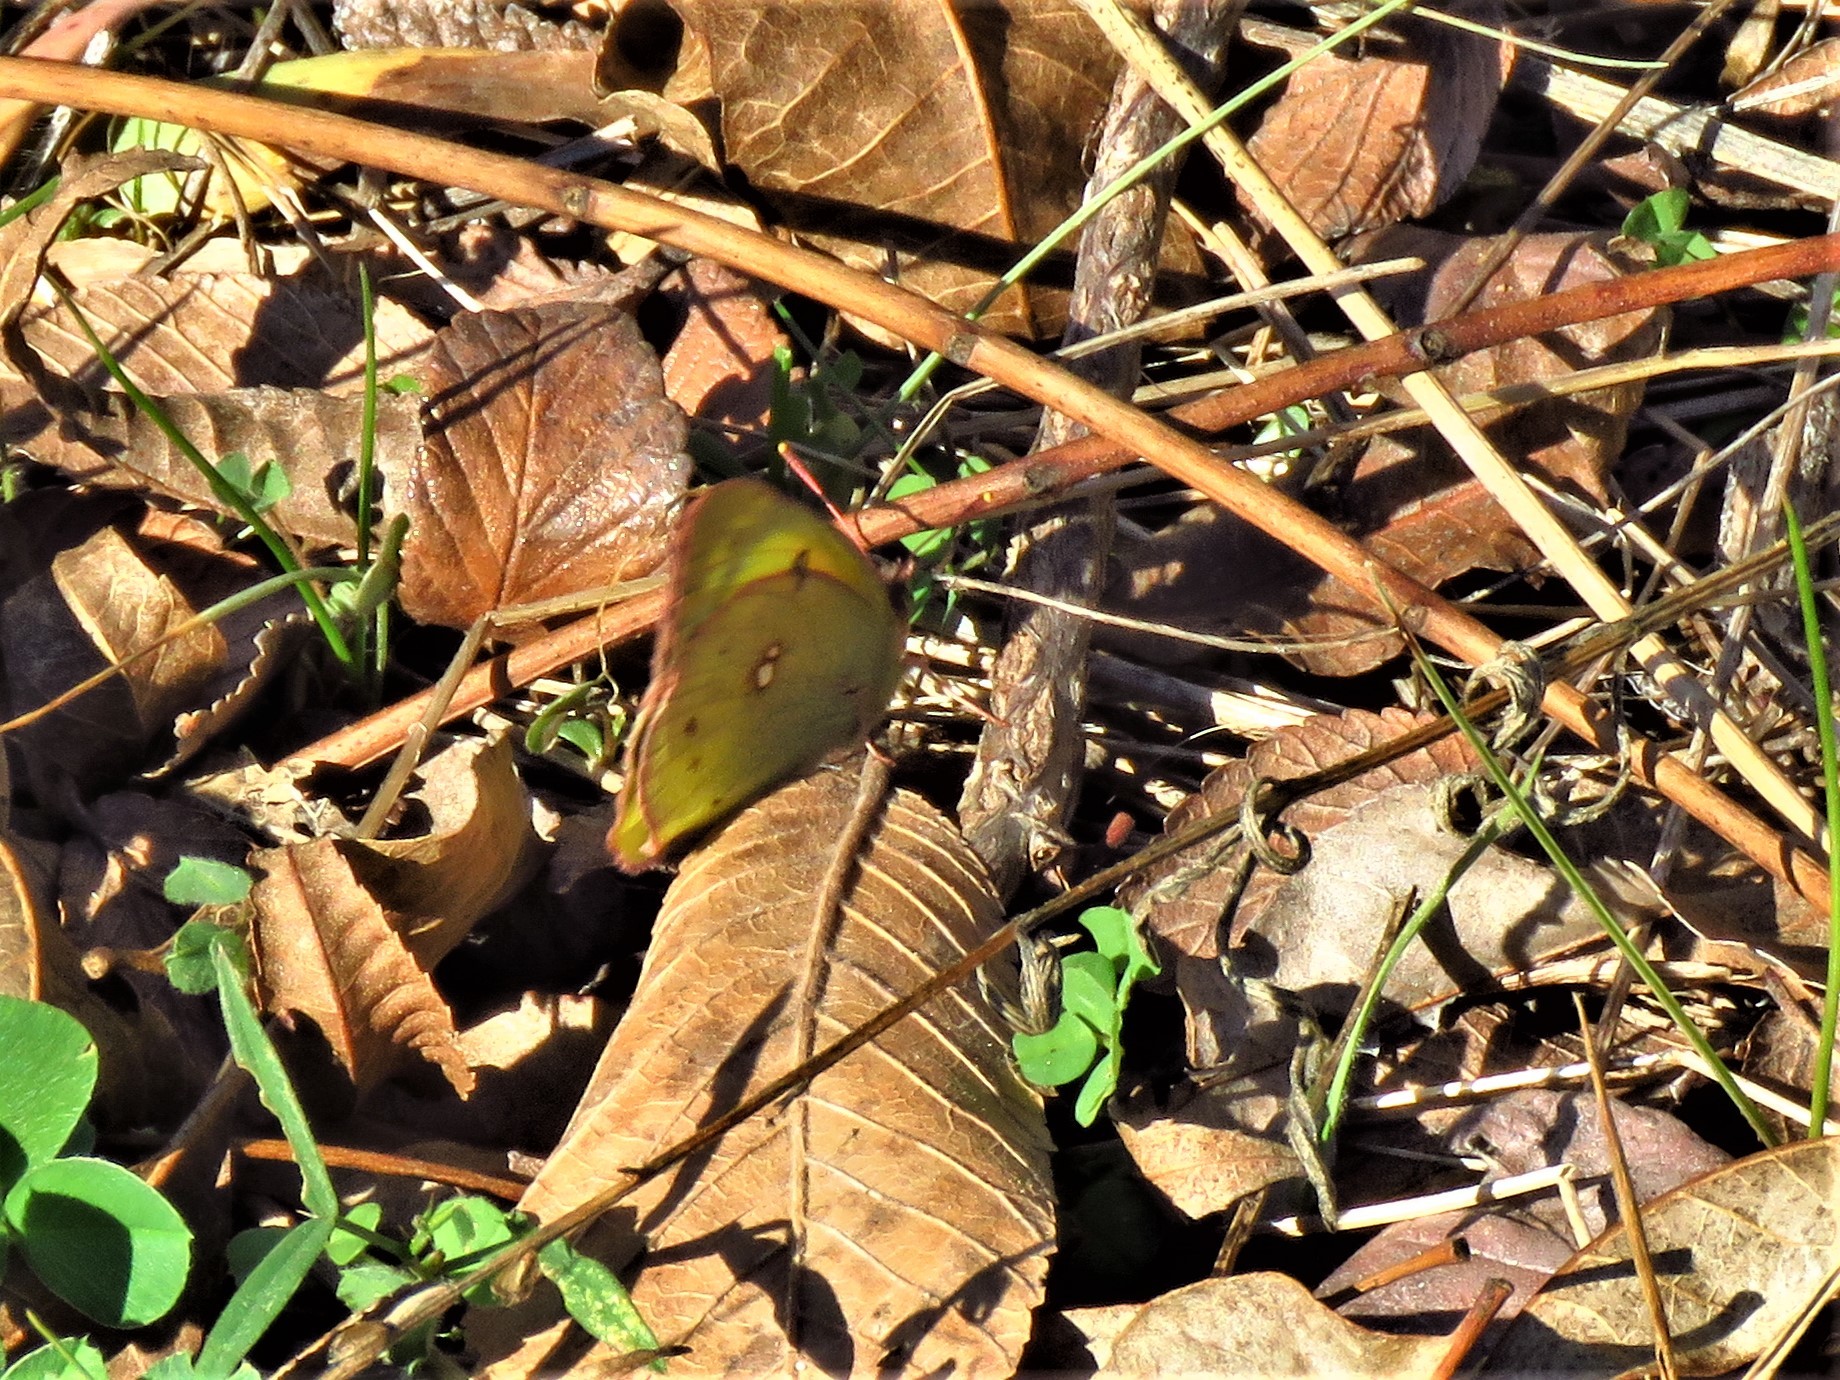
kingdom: Animalia
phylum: Arthropoda
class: Insecta
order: Lepidoptera
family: Pieridae
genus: Colias
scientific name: Colias eurytheme
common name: Alfalfa butterfly
